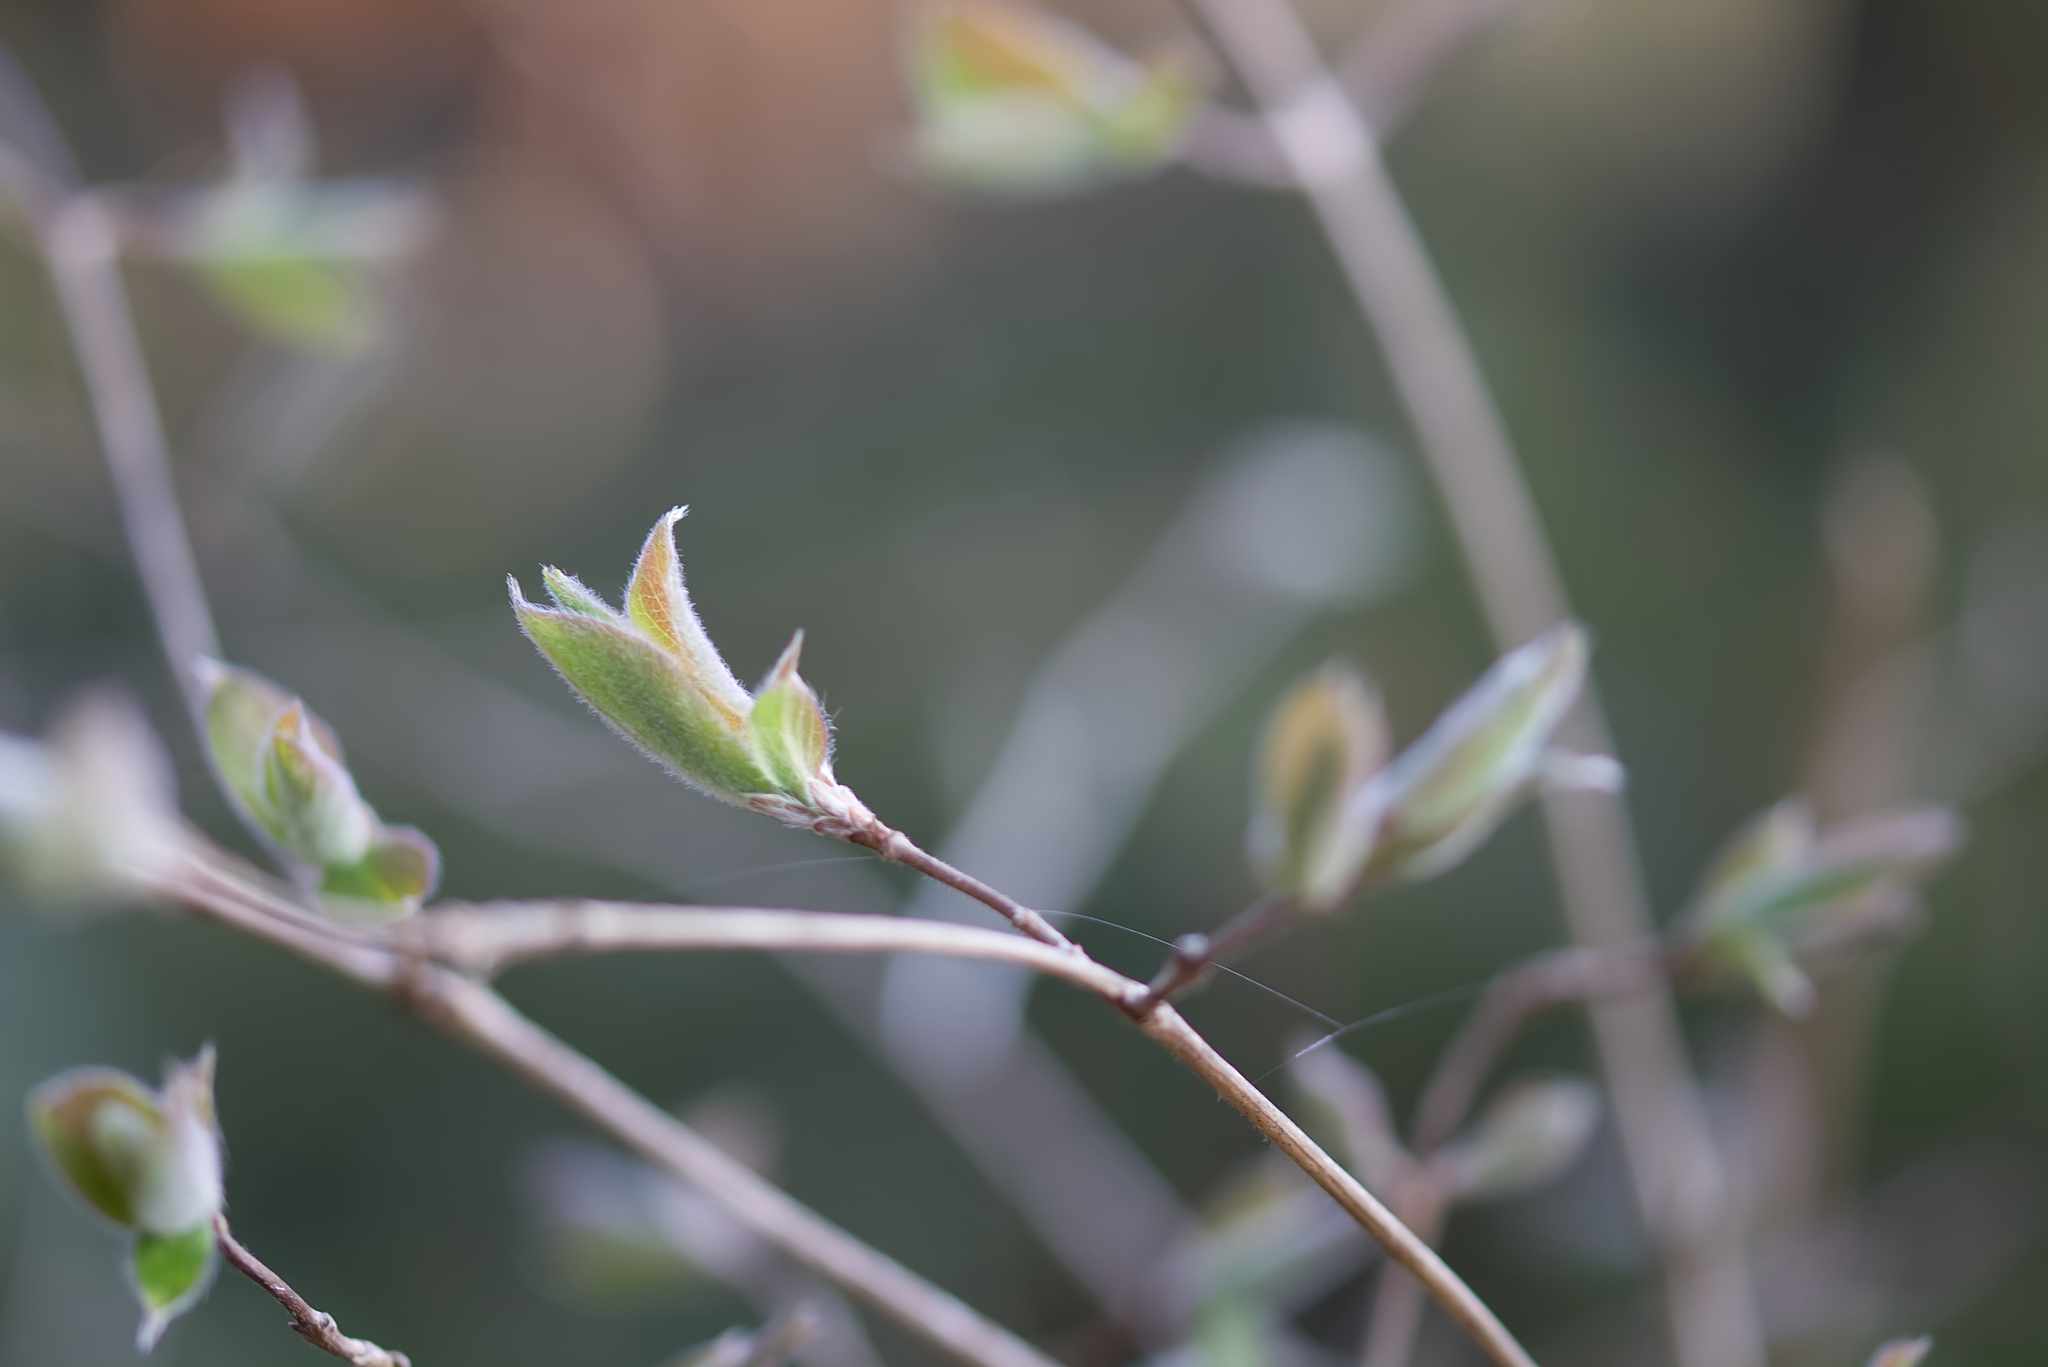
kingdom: Plantae
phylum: Tracheophyta
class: Magnoliopsida
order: Dipsacales
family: Caprifoliaceae
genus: Lonicera
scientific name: Lonicera xylosteum
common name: Fly honeysuckle
